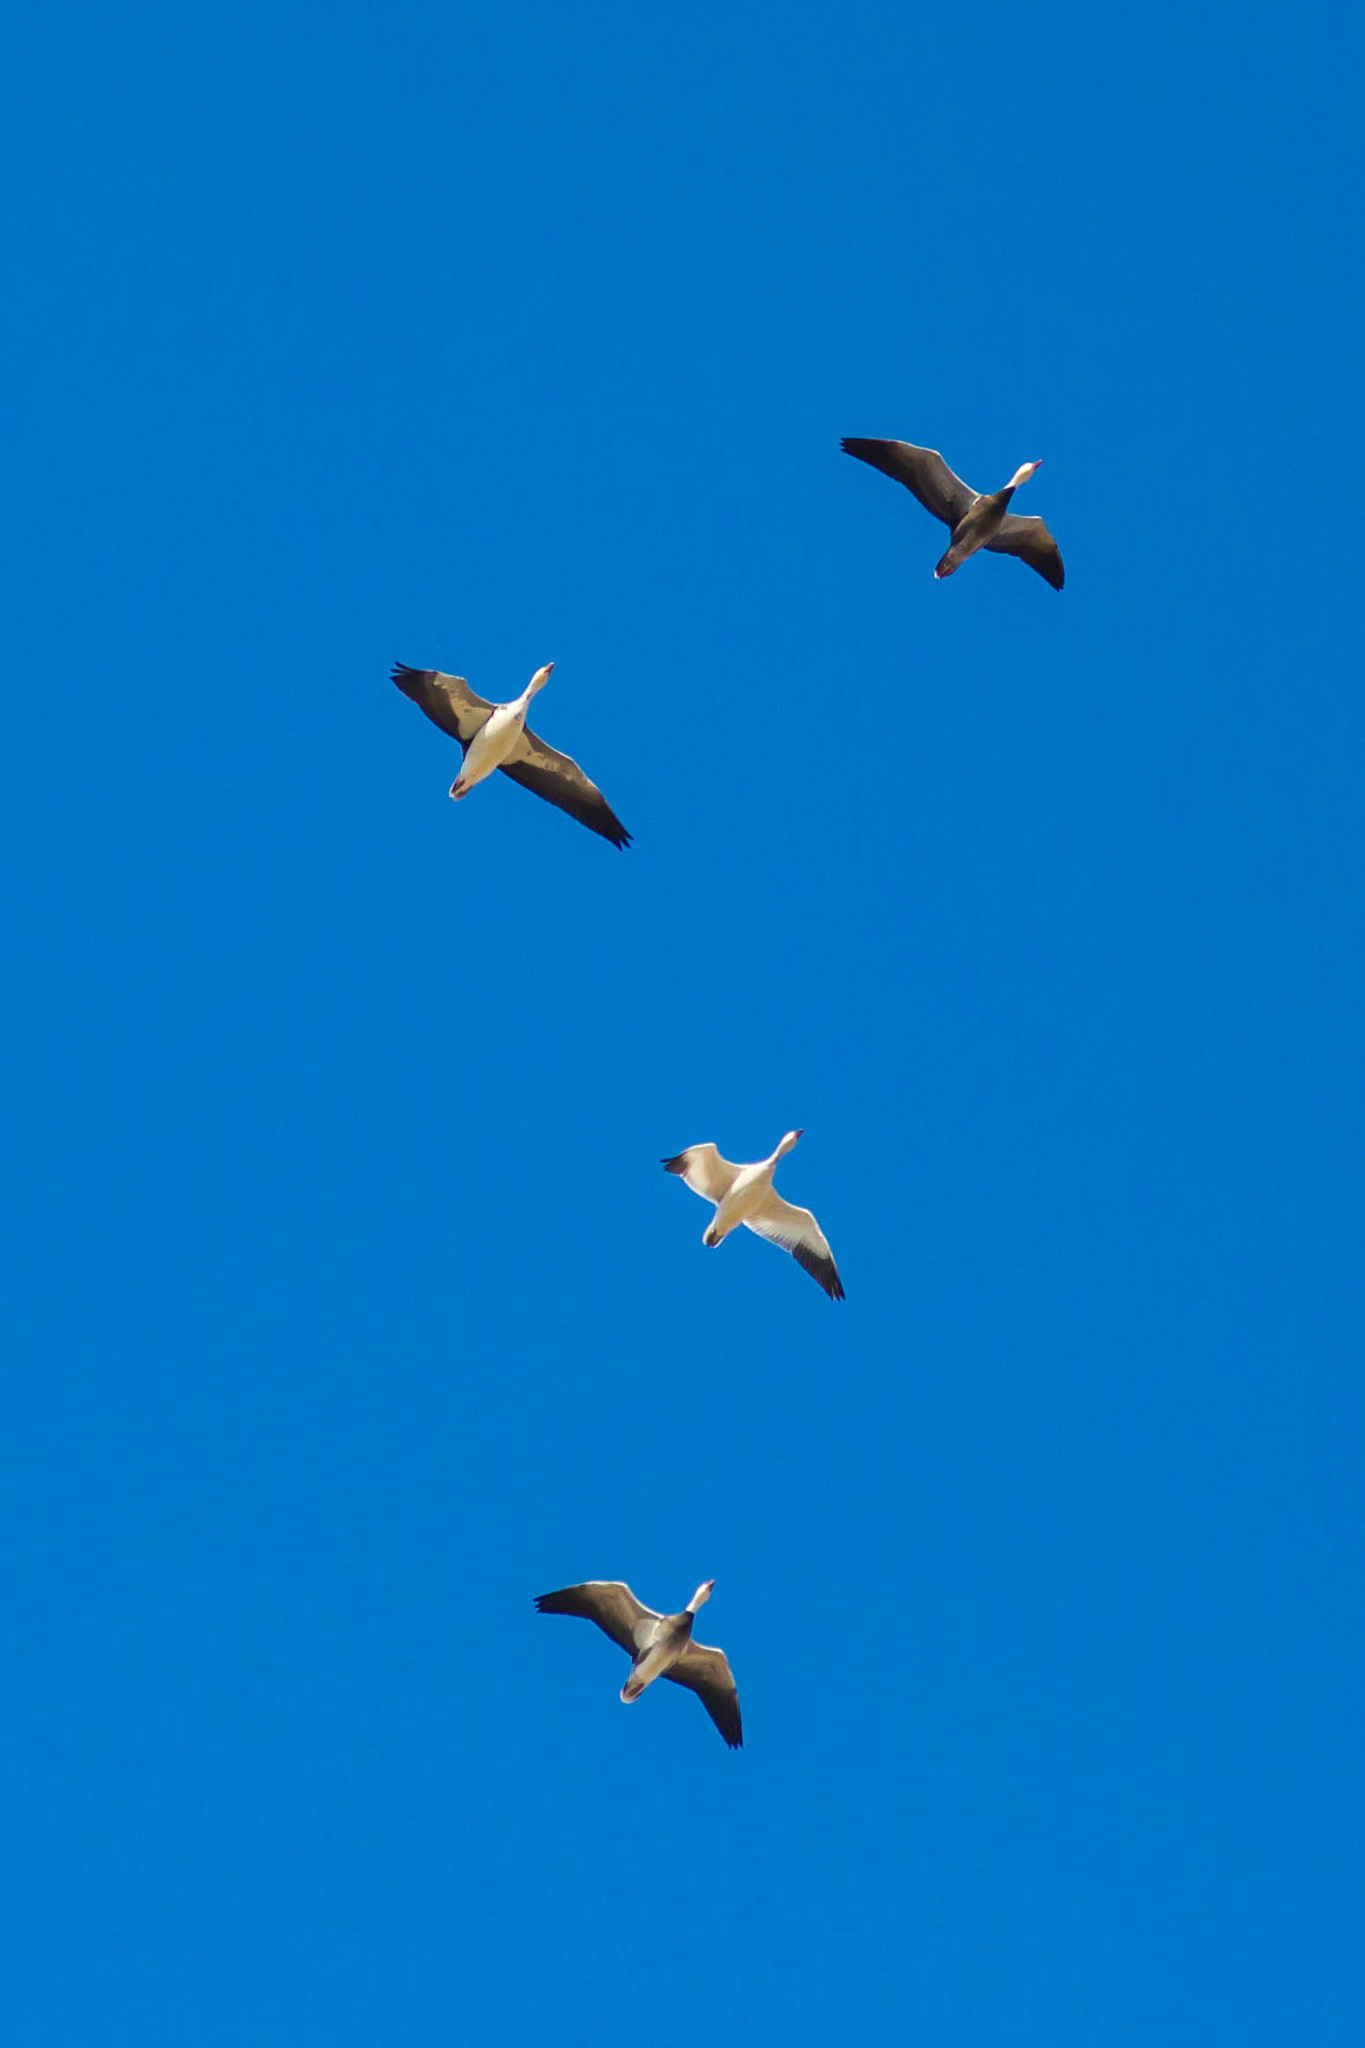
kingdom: Animalia
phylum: Chordata
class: Aves
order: Anseriformes
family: Anatidae
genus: Anser
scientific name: Anser caerulescens
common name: Snow goose
